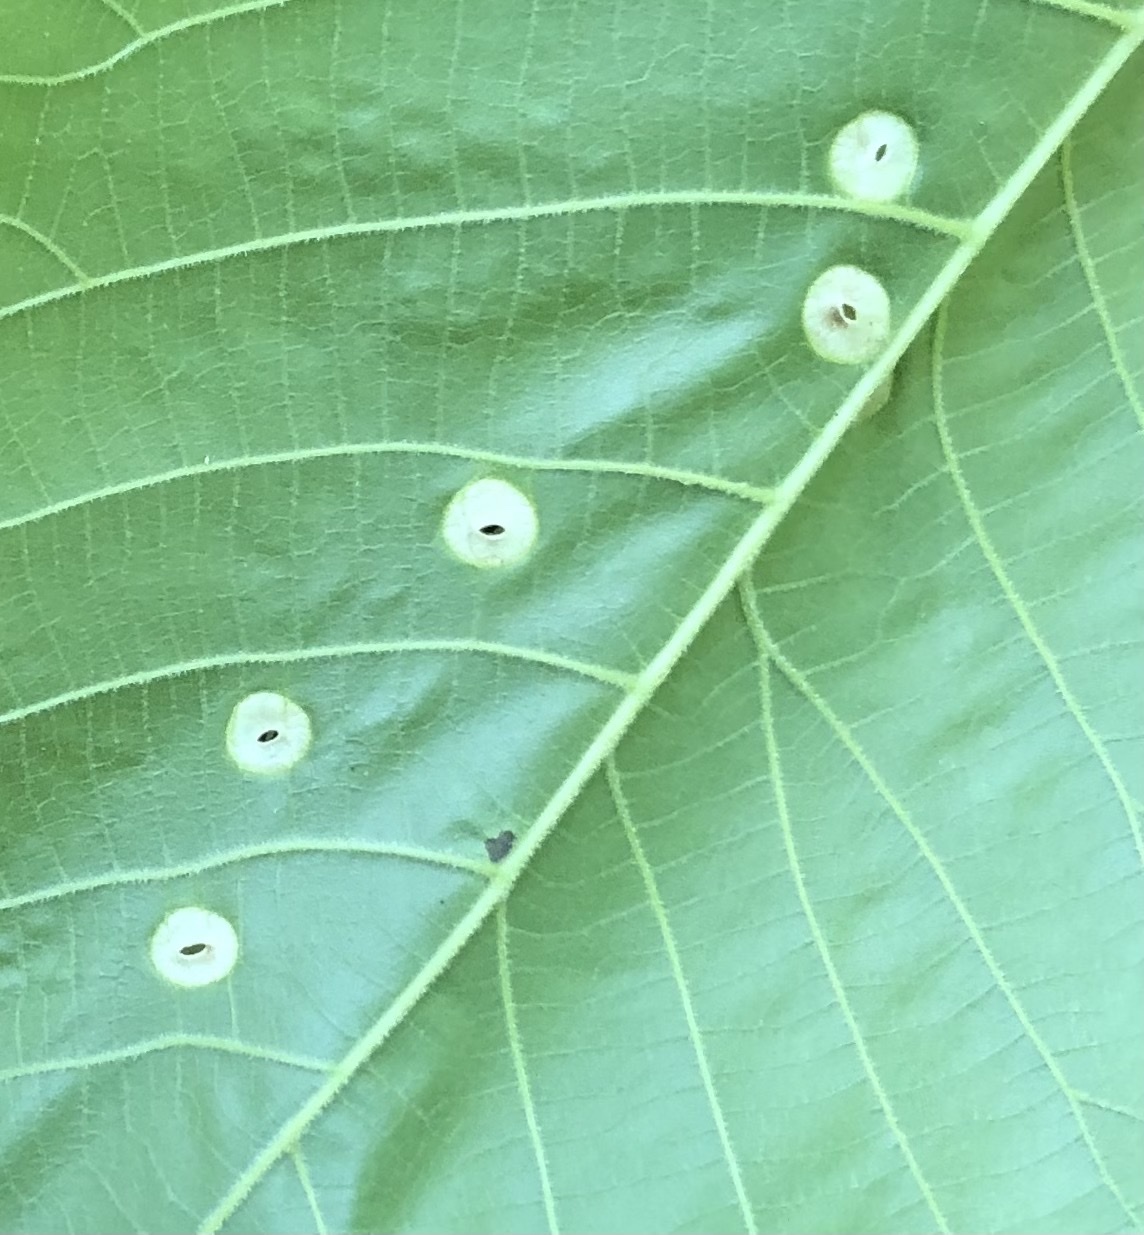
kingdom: Animalia
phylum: Arthropoda
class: Insecta
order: Hemiptera
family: Phylloxeridae
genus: Phylloxera
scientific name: Phylloxera caryae-globuli
